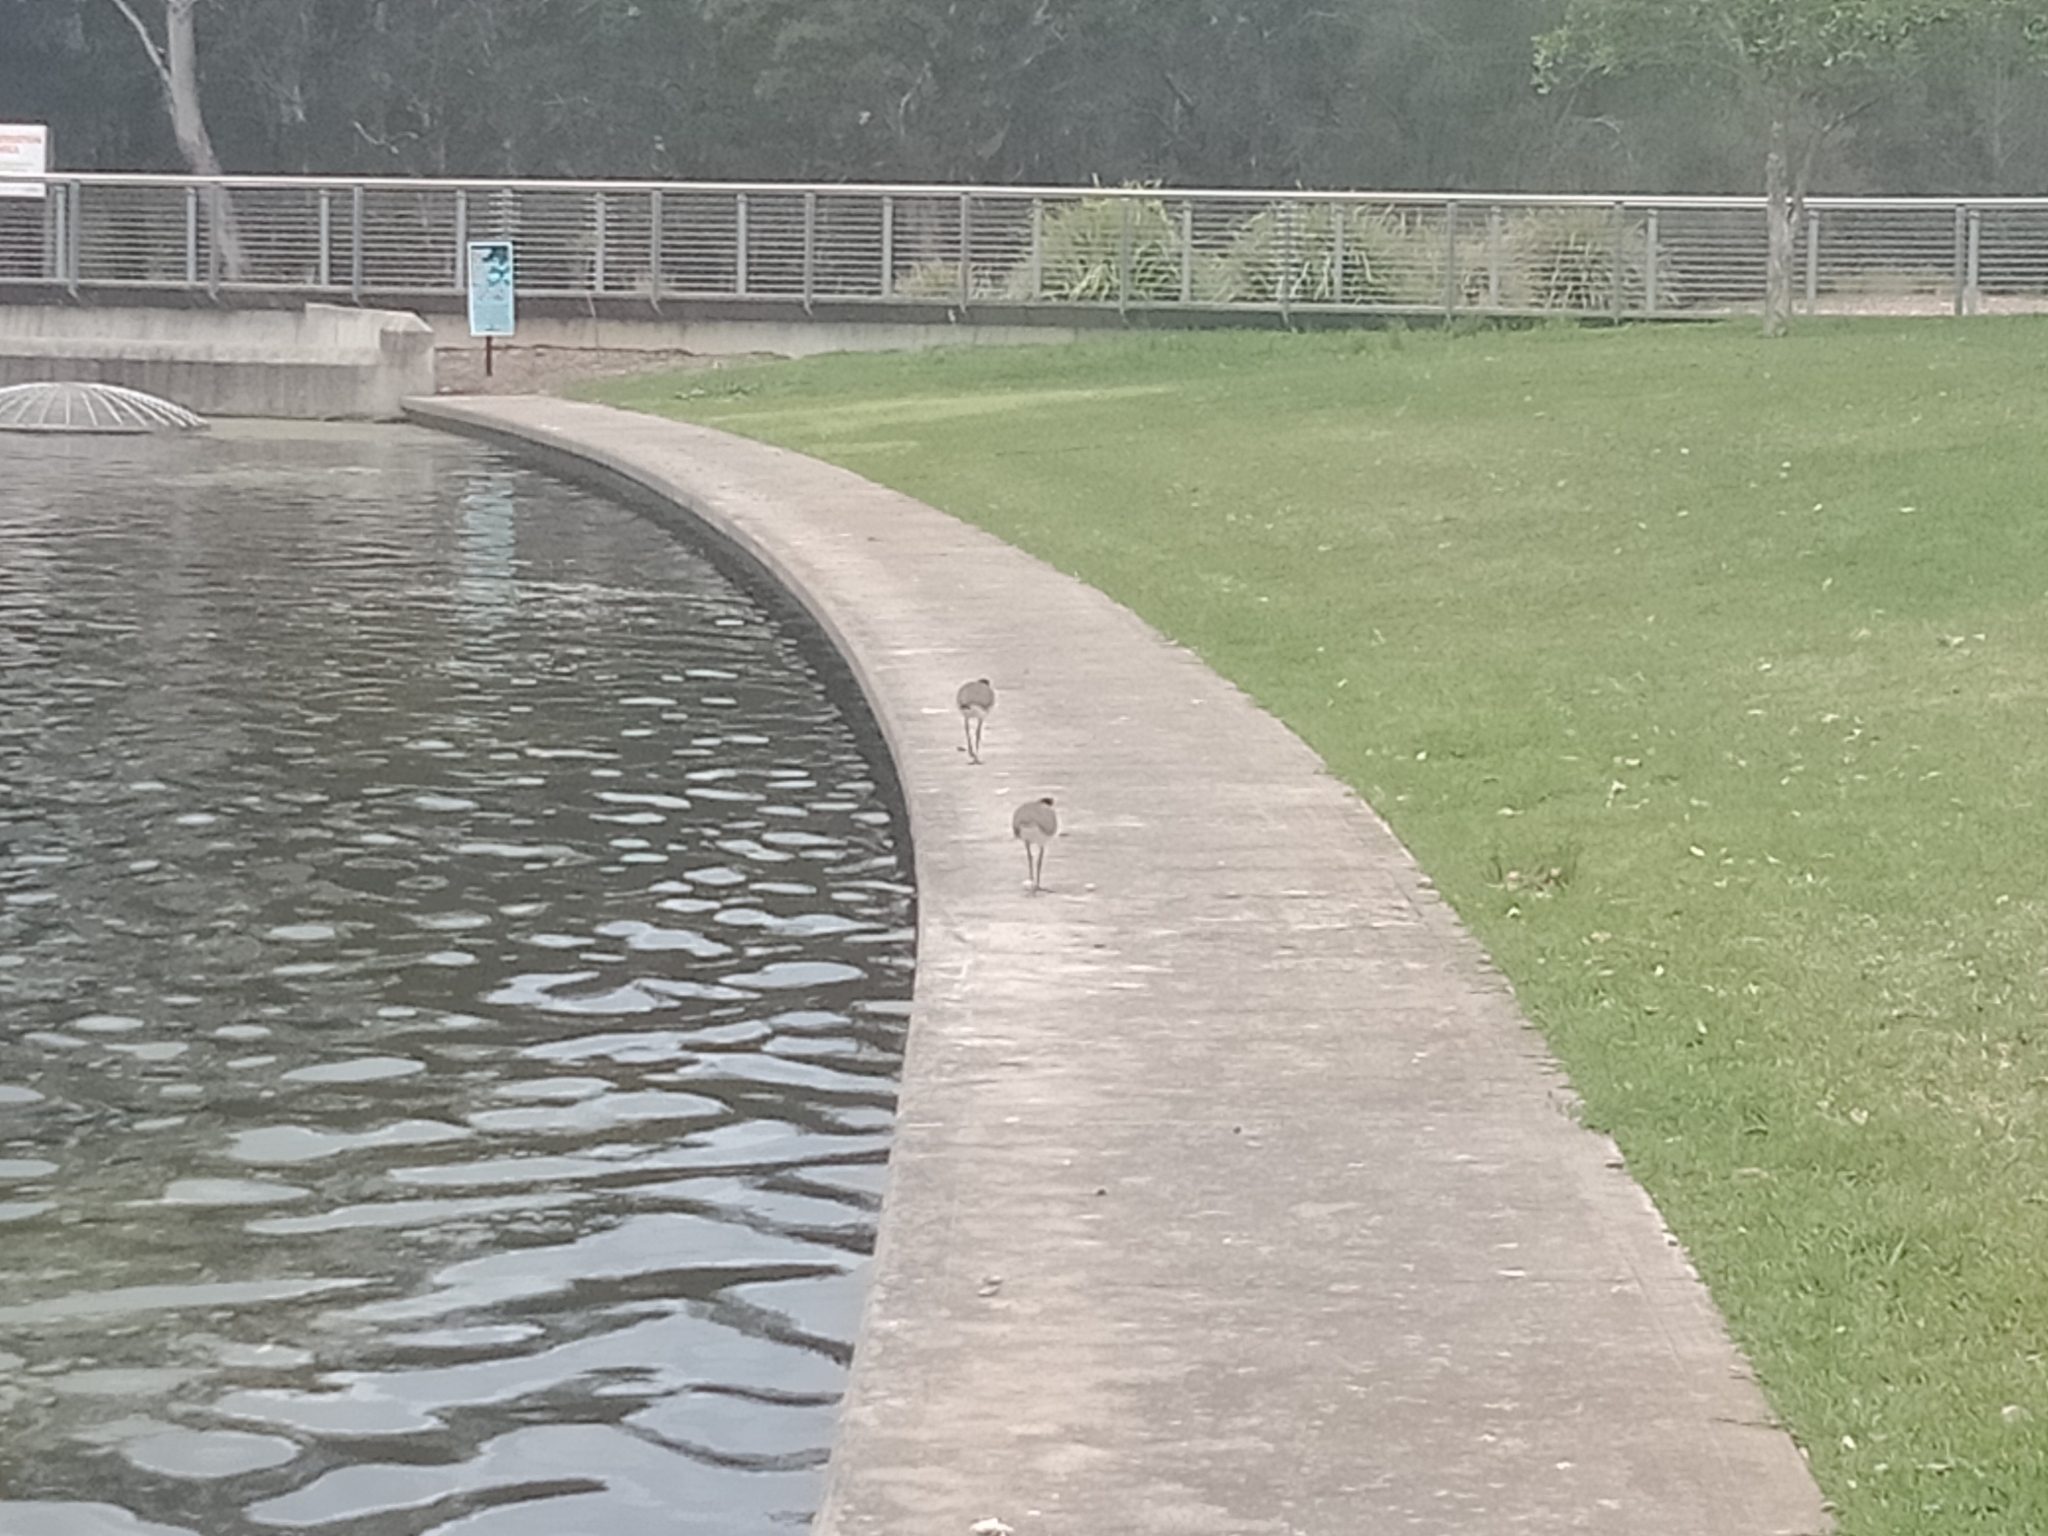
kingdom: Animalia
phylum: Chordata
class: Aves
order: Charadriiformes
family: Charadriidae
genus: Vanellus
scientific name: Vanellus miles
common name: Masked lapwing
